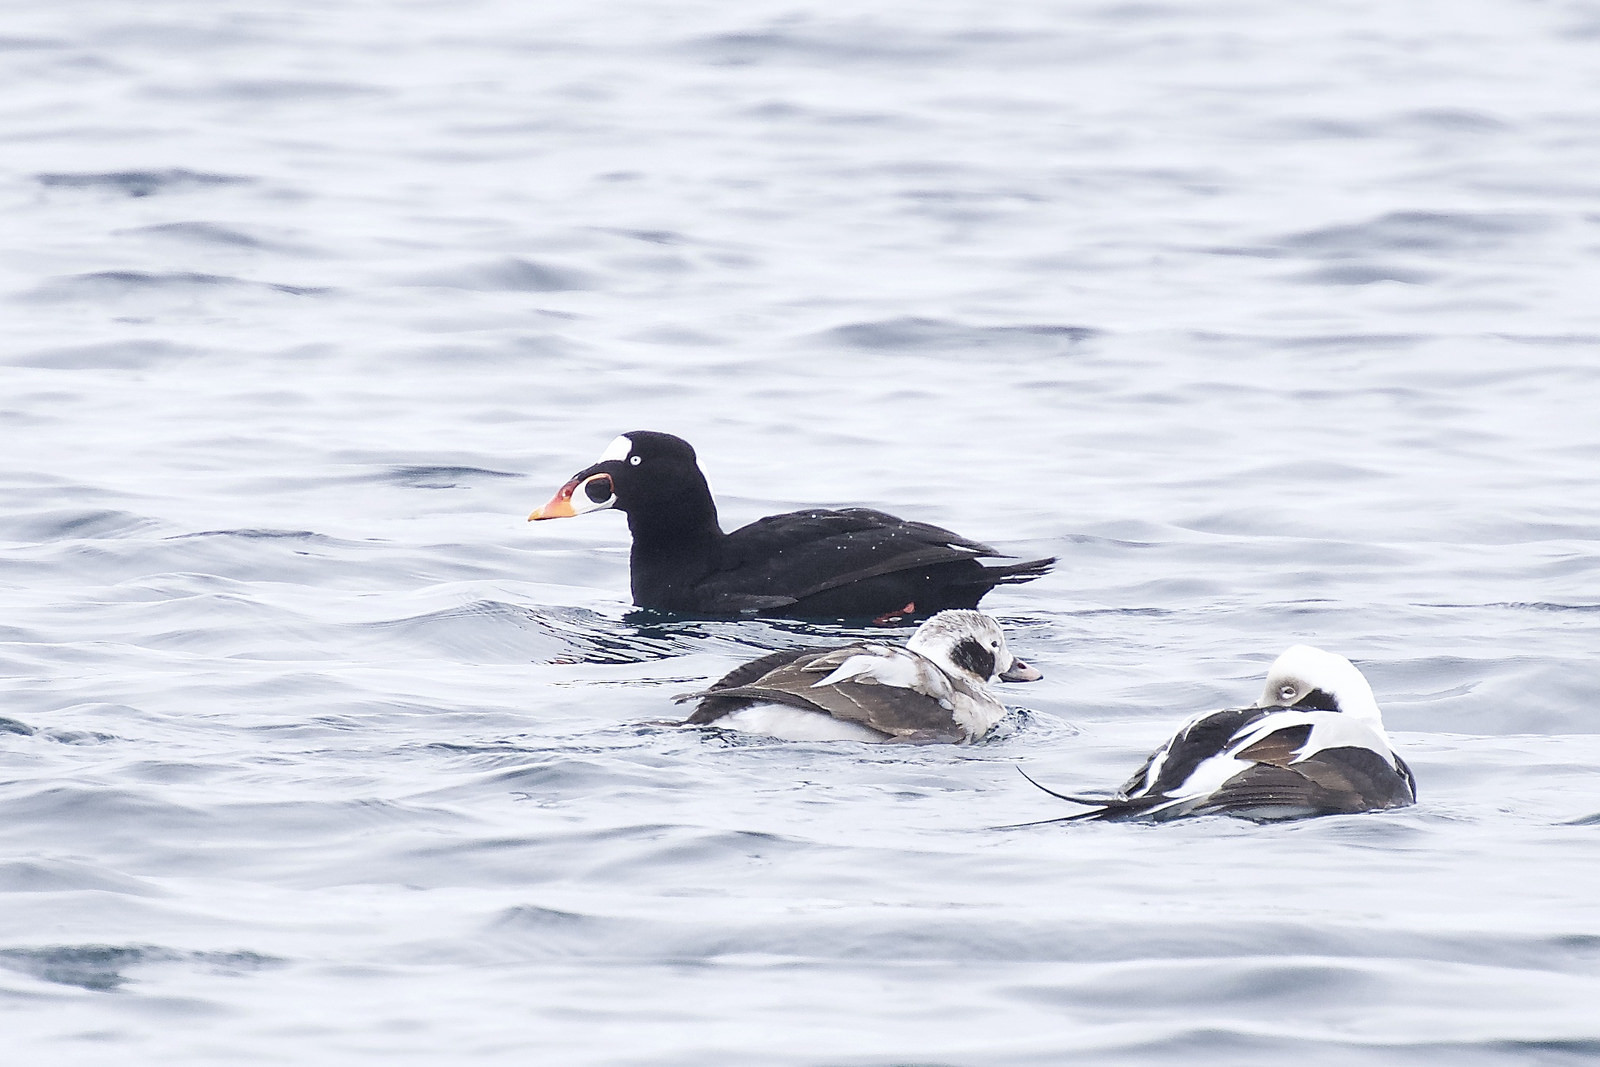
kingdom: Animalia
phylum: Chordata
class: Aves
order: Anseriformes
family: Anatidae
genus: Melanitta
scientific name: Melanitta perspicillata
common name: Surf scoter
